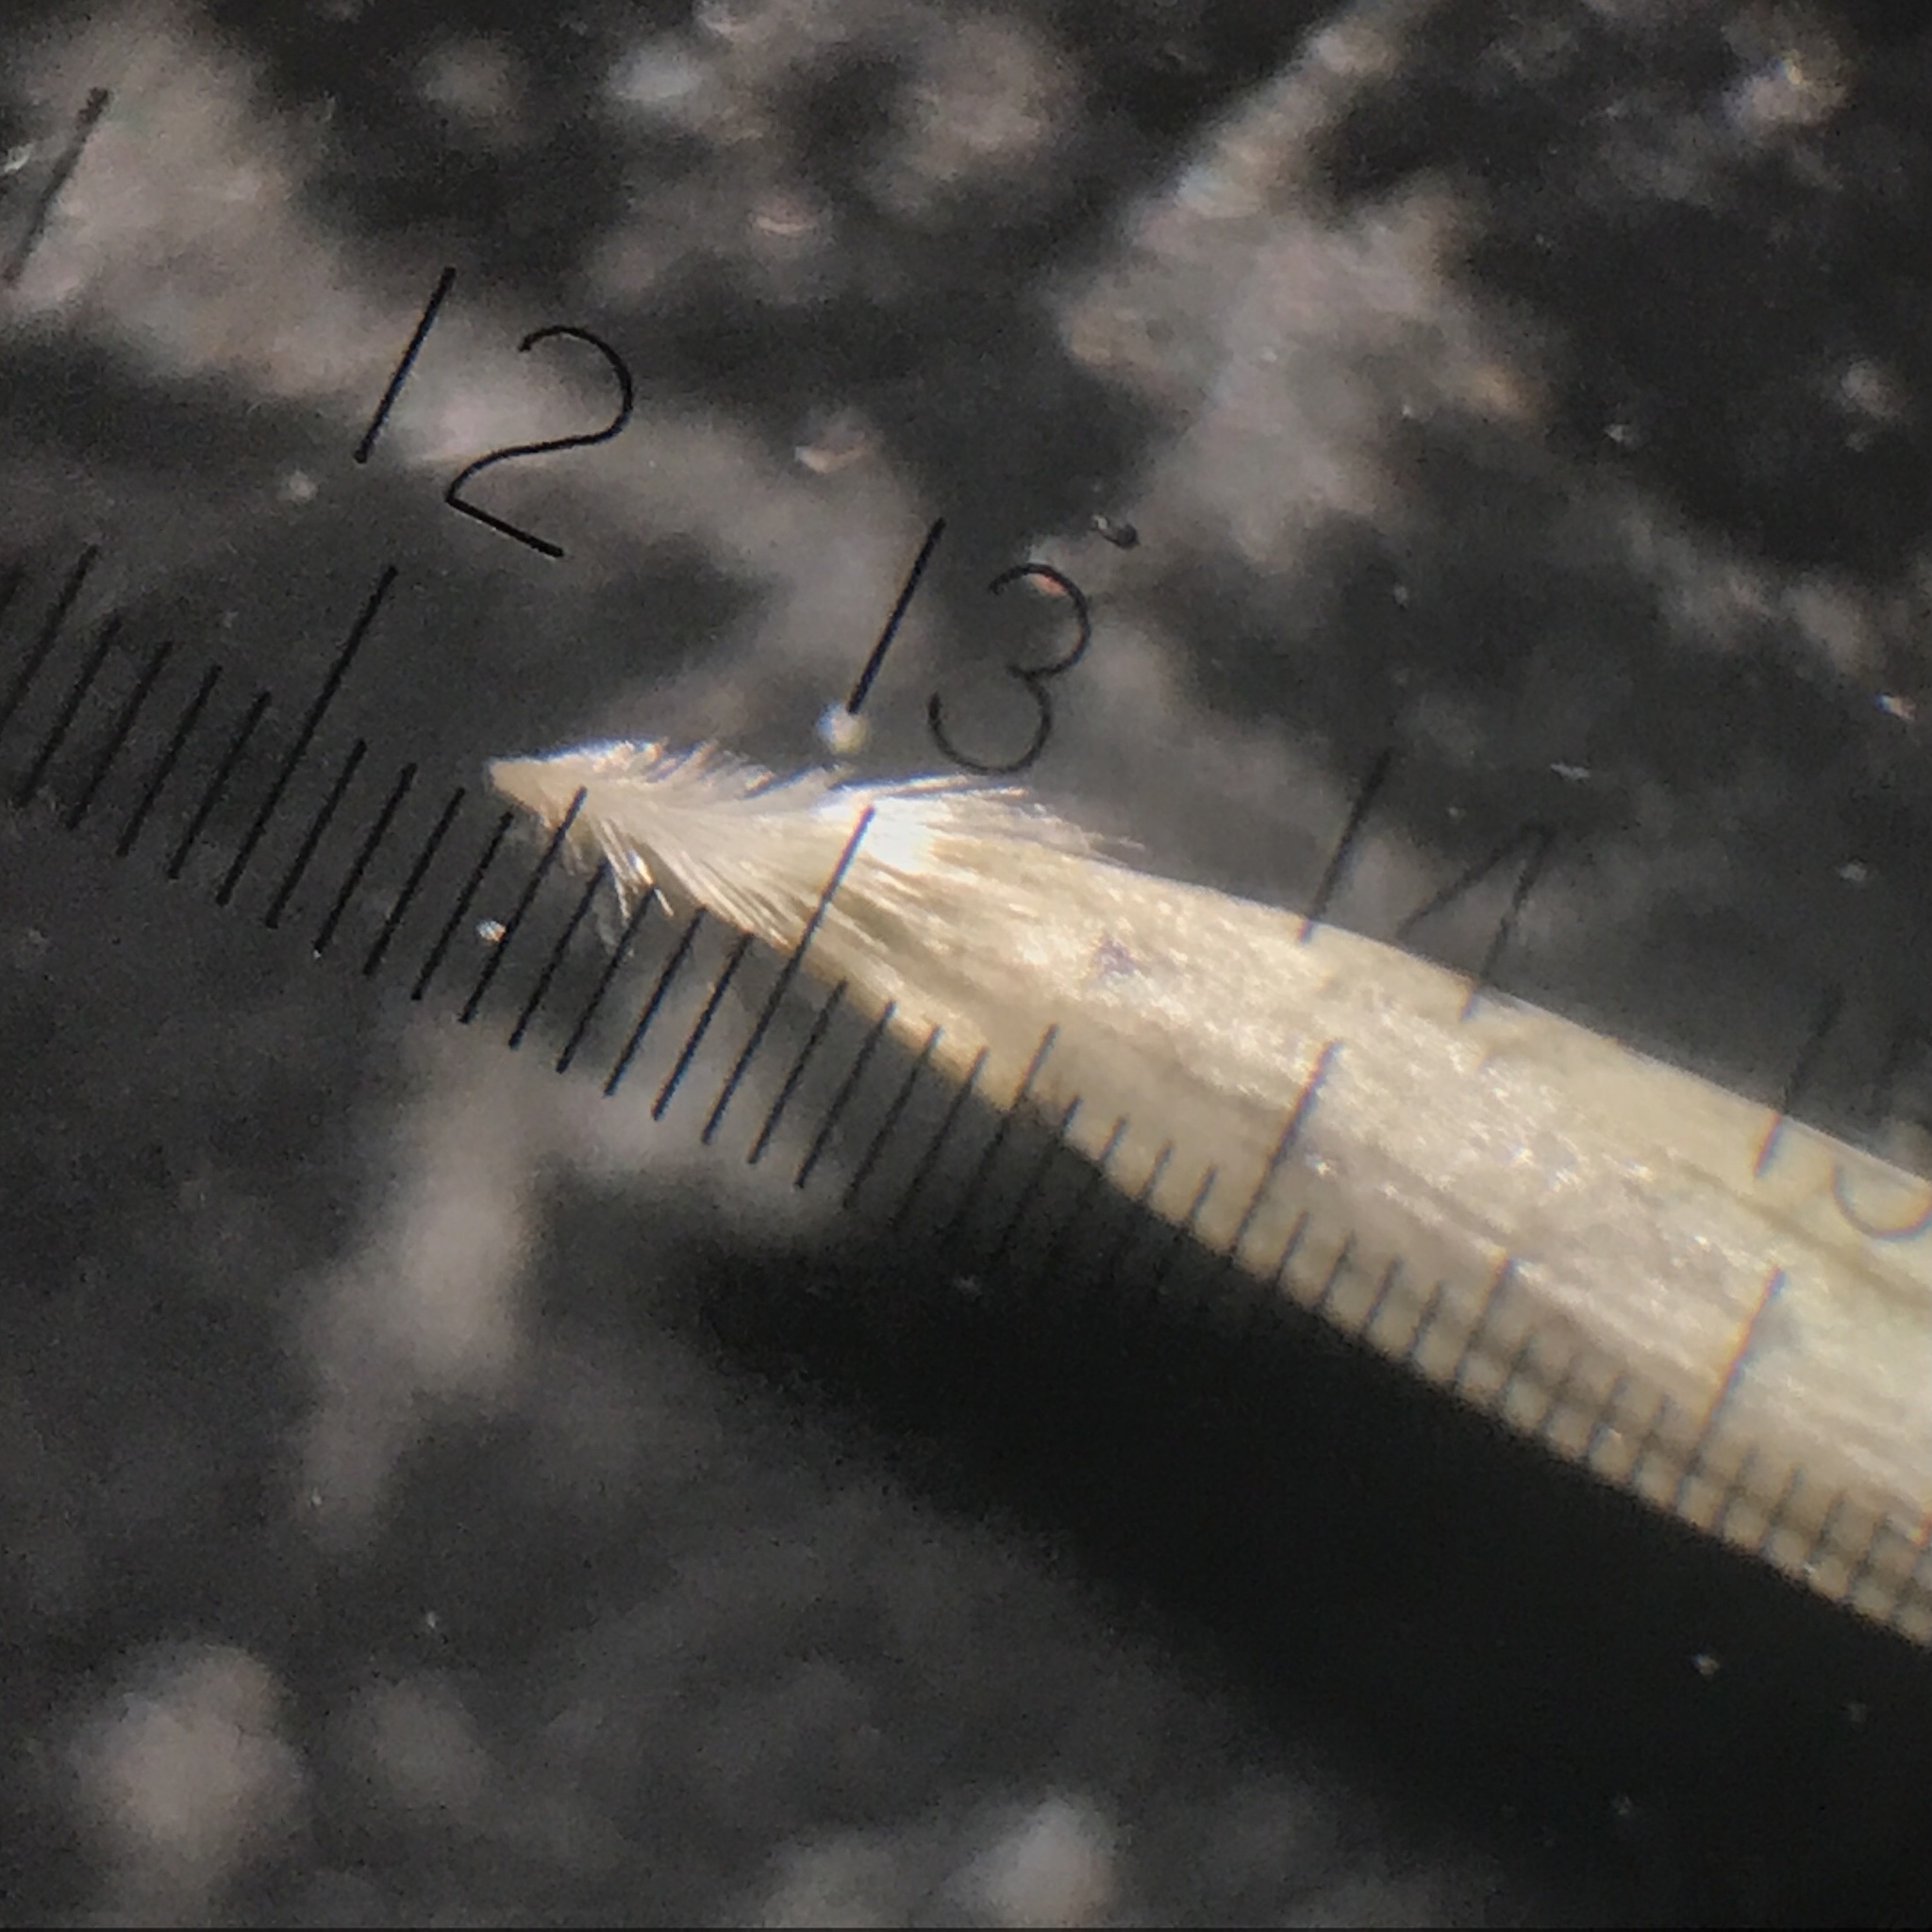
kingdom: Plantae
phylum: Tracheophyta
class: Liliopsida
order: Poales
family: Poaceae
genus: Aristida
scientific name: Aristida oligantha
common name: Few-flowered aristida
